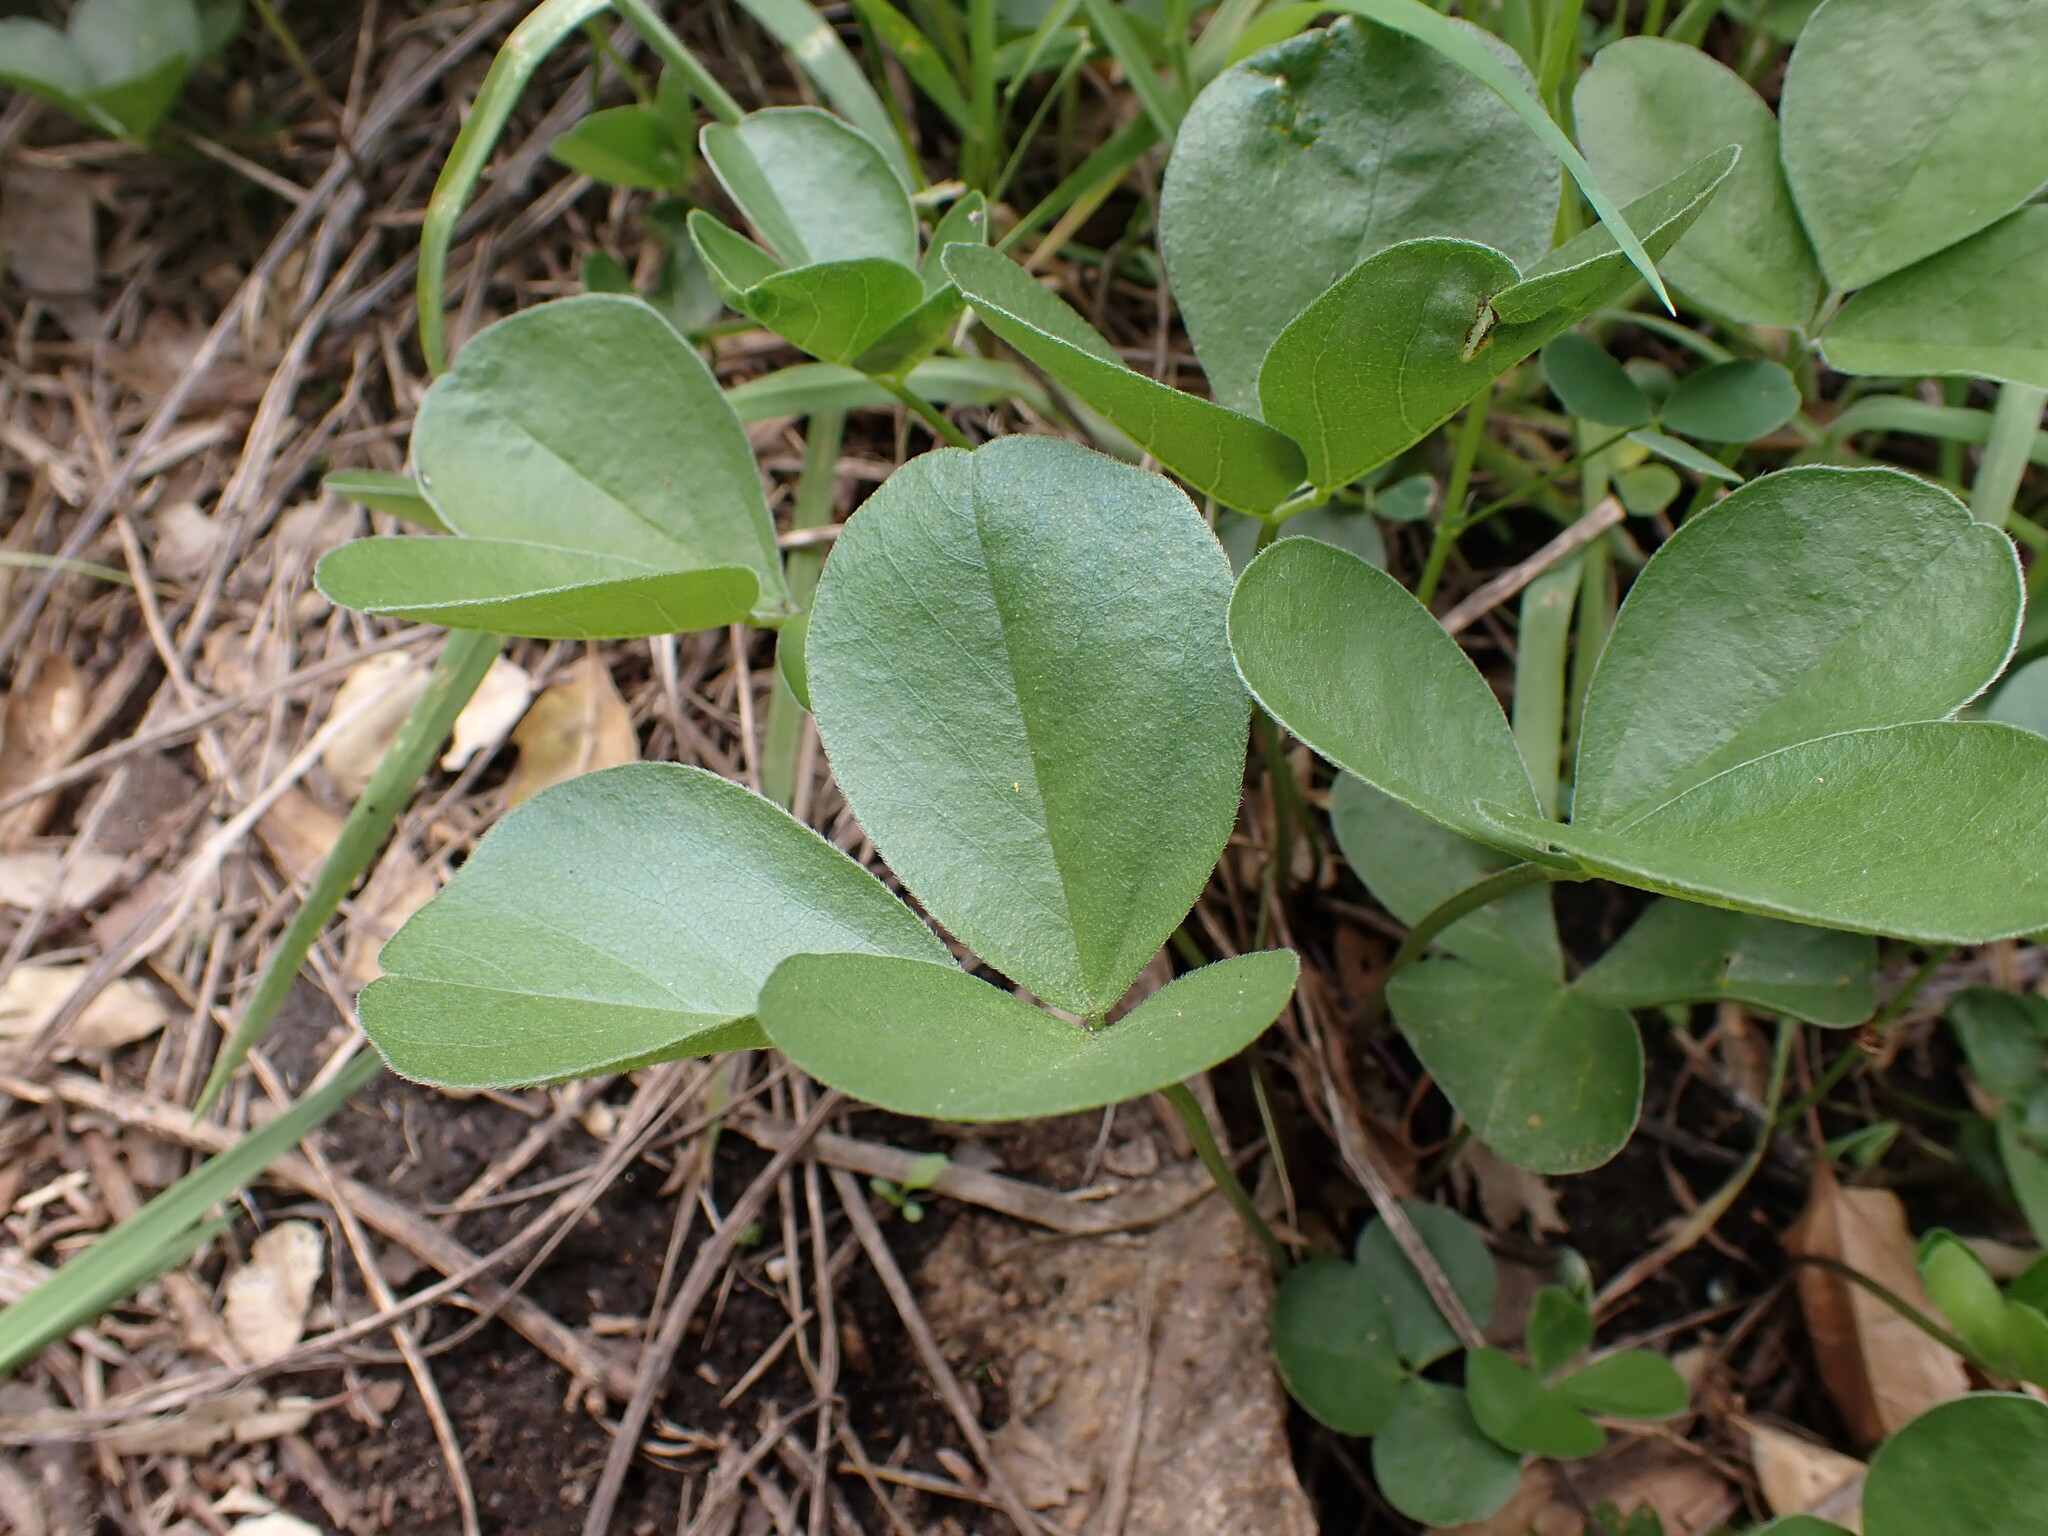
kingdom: Plantae
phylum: Tracheophyta
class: Magnoliopsida
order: Fabales
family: Fabaceae
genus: Hoita
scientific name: Hoita orbicularis
